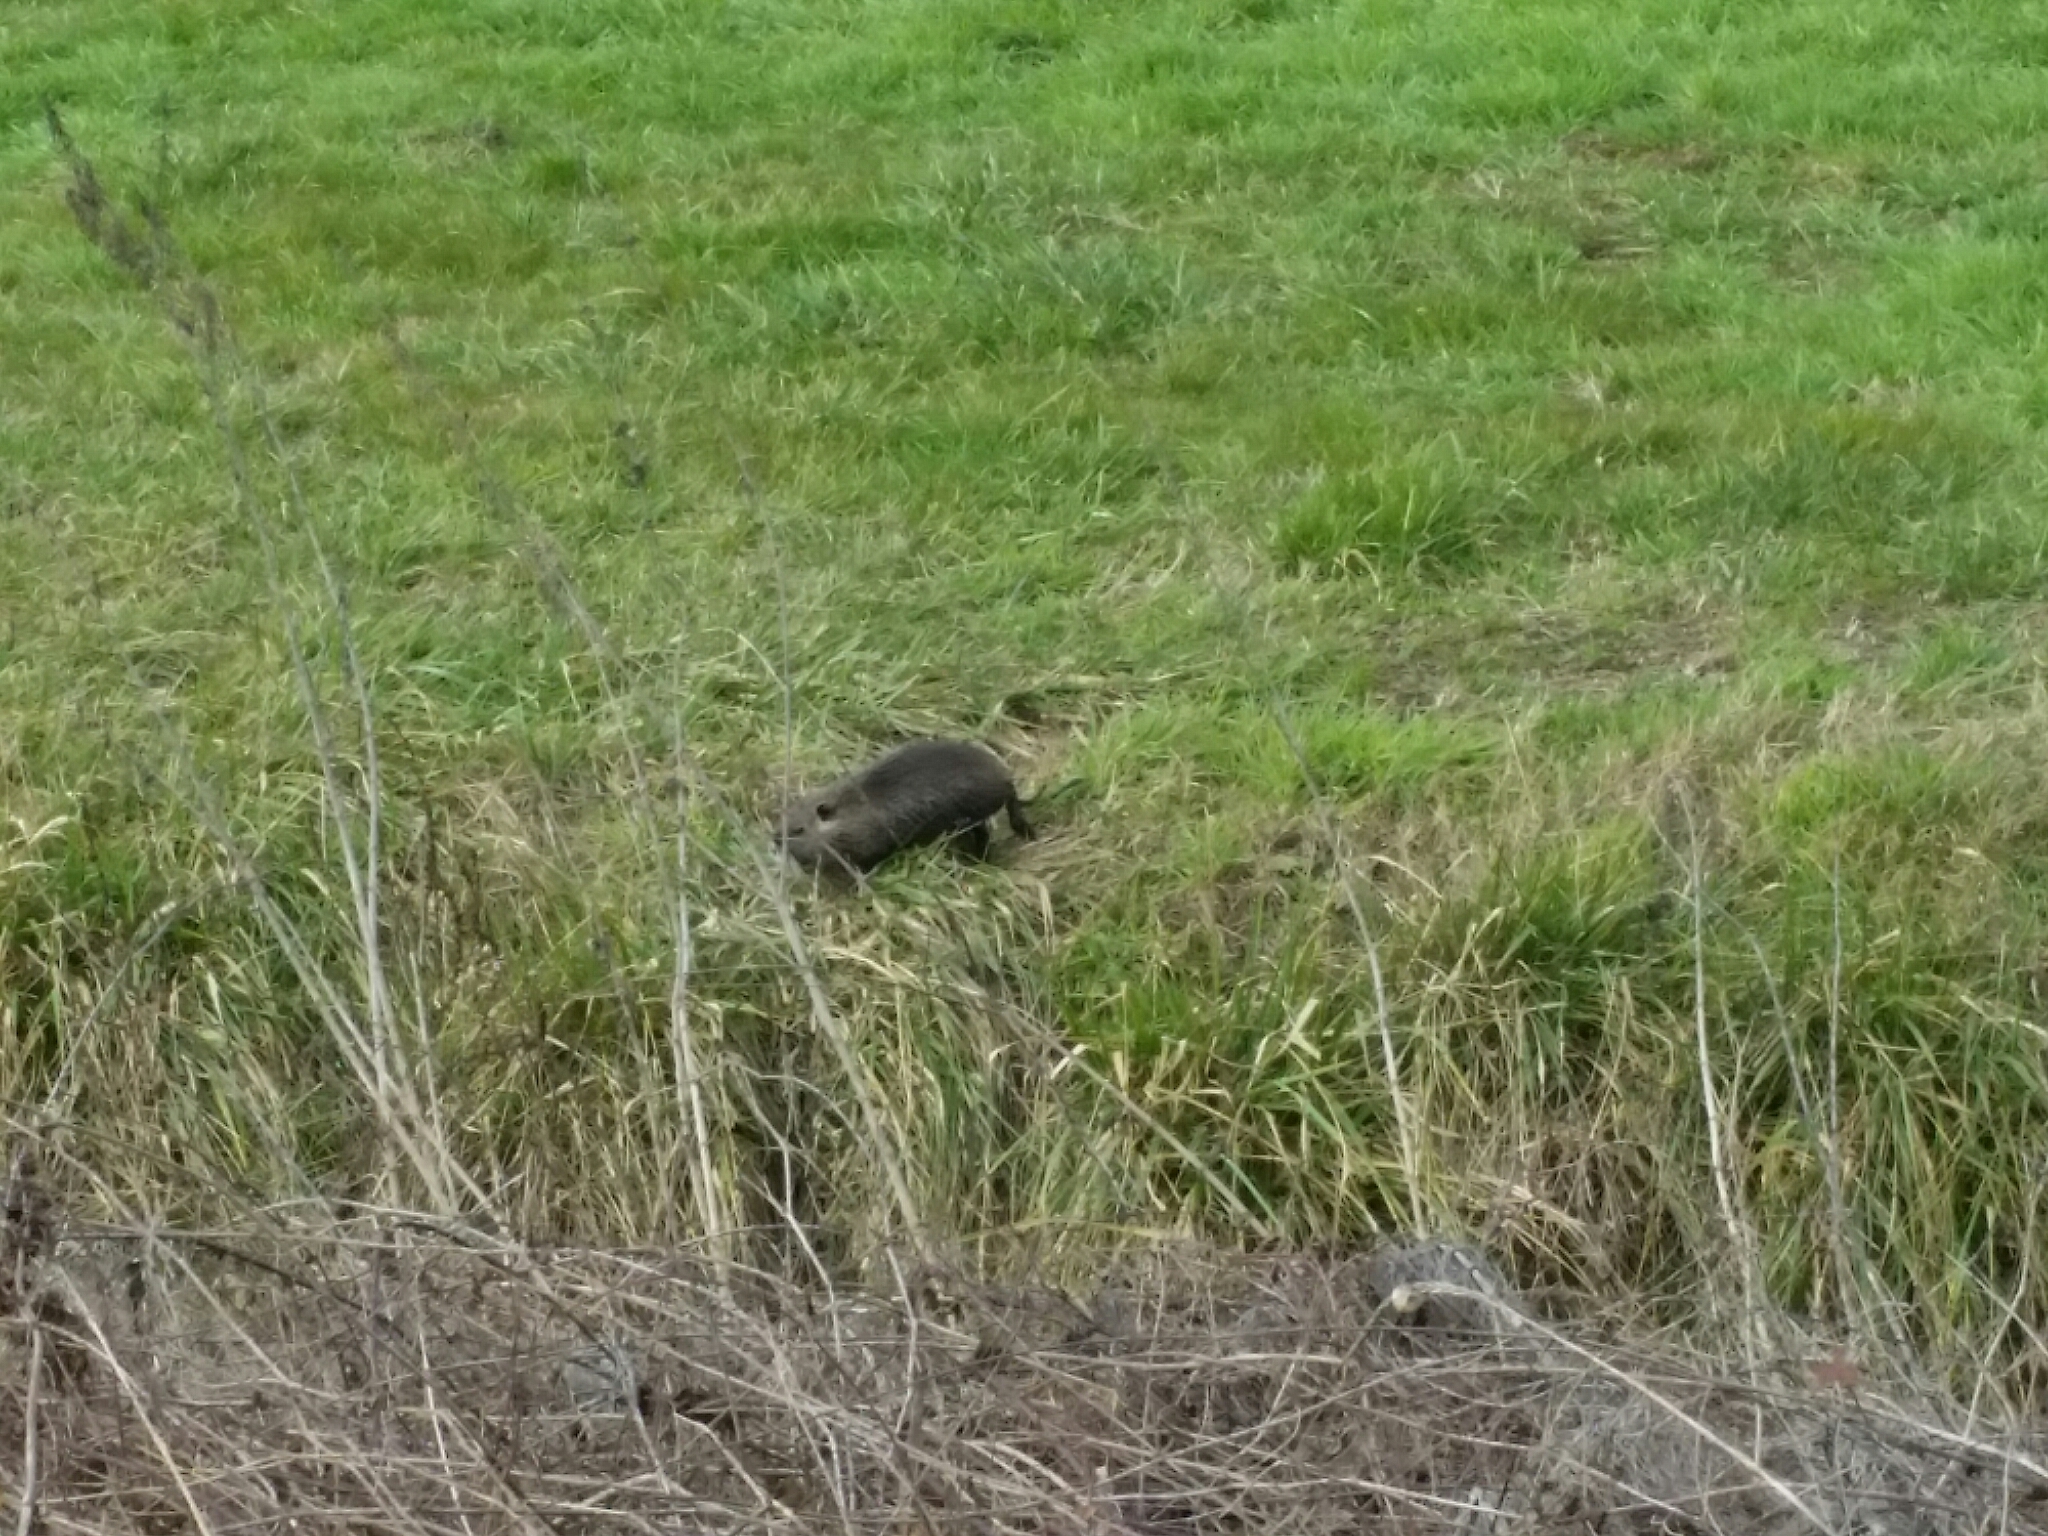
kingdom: Animalia
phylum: Chordata
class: Mammalia
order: Rodentia
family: Myocastoridae
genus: Myocastor
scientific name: Myocastor coypus
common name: Coypu
